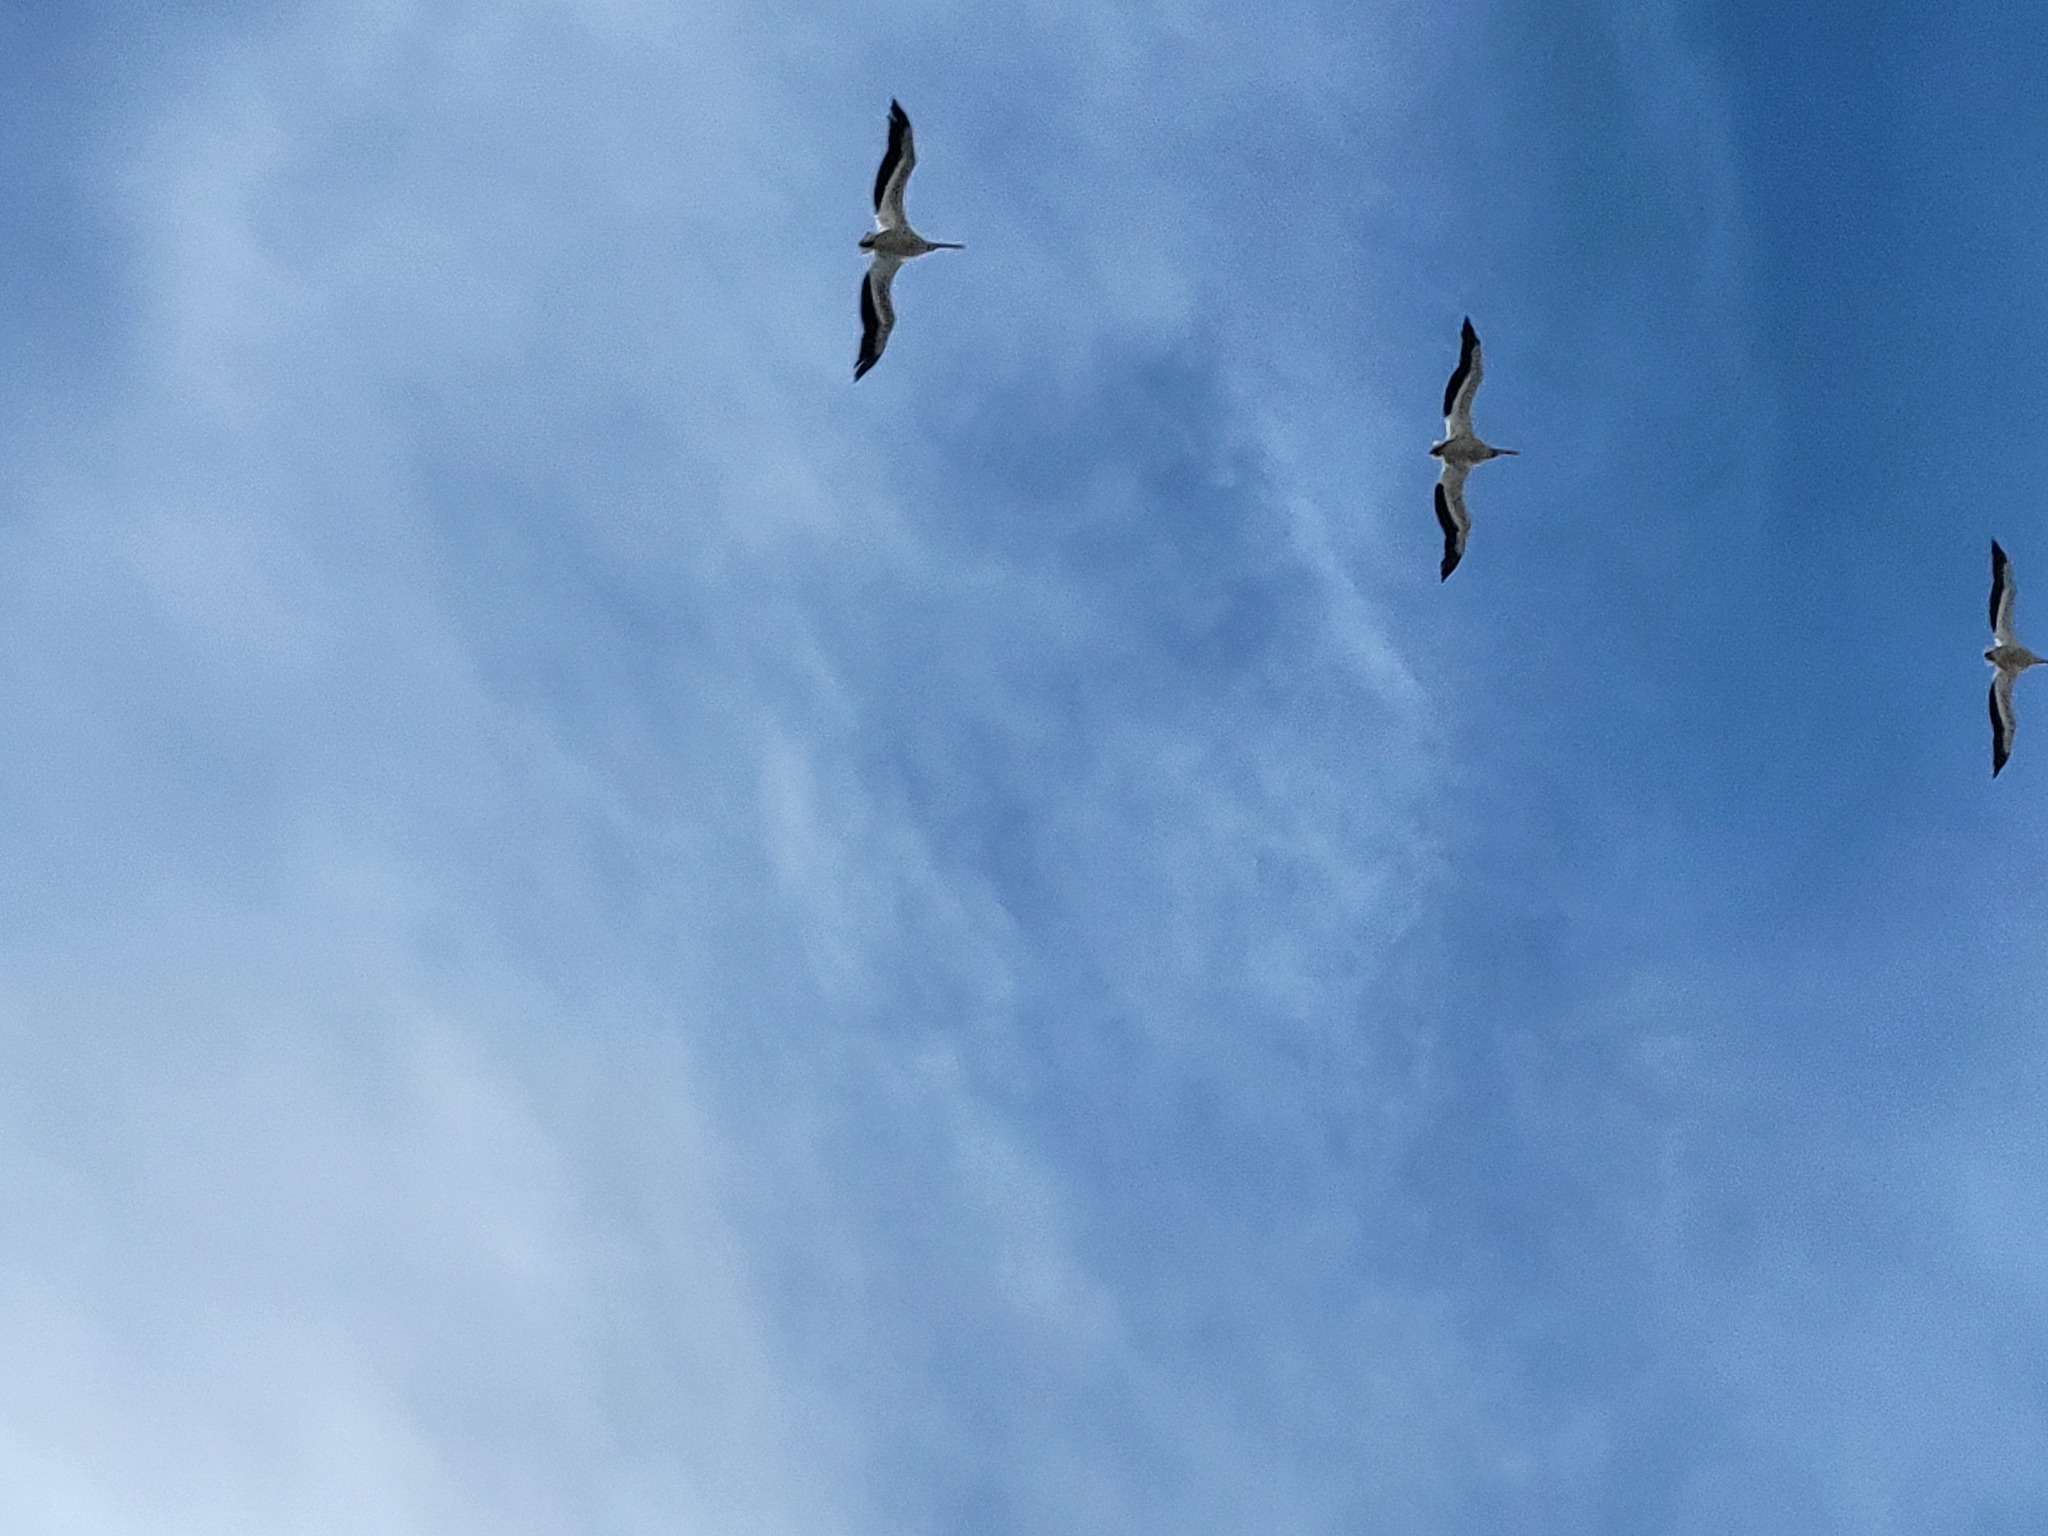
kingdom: Animalia
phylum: Chordata
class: Aves
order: Pelecaniformes
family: Pelecanidae
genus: Pelecanus
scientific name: Pelecanus erythrorhynchos
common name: American white pelican
